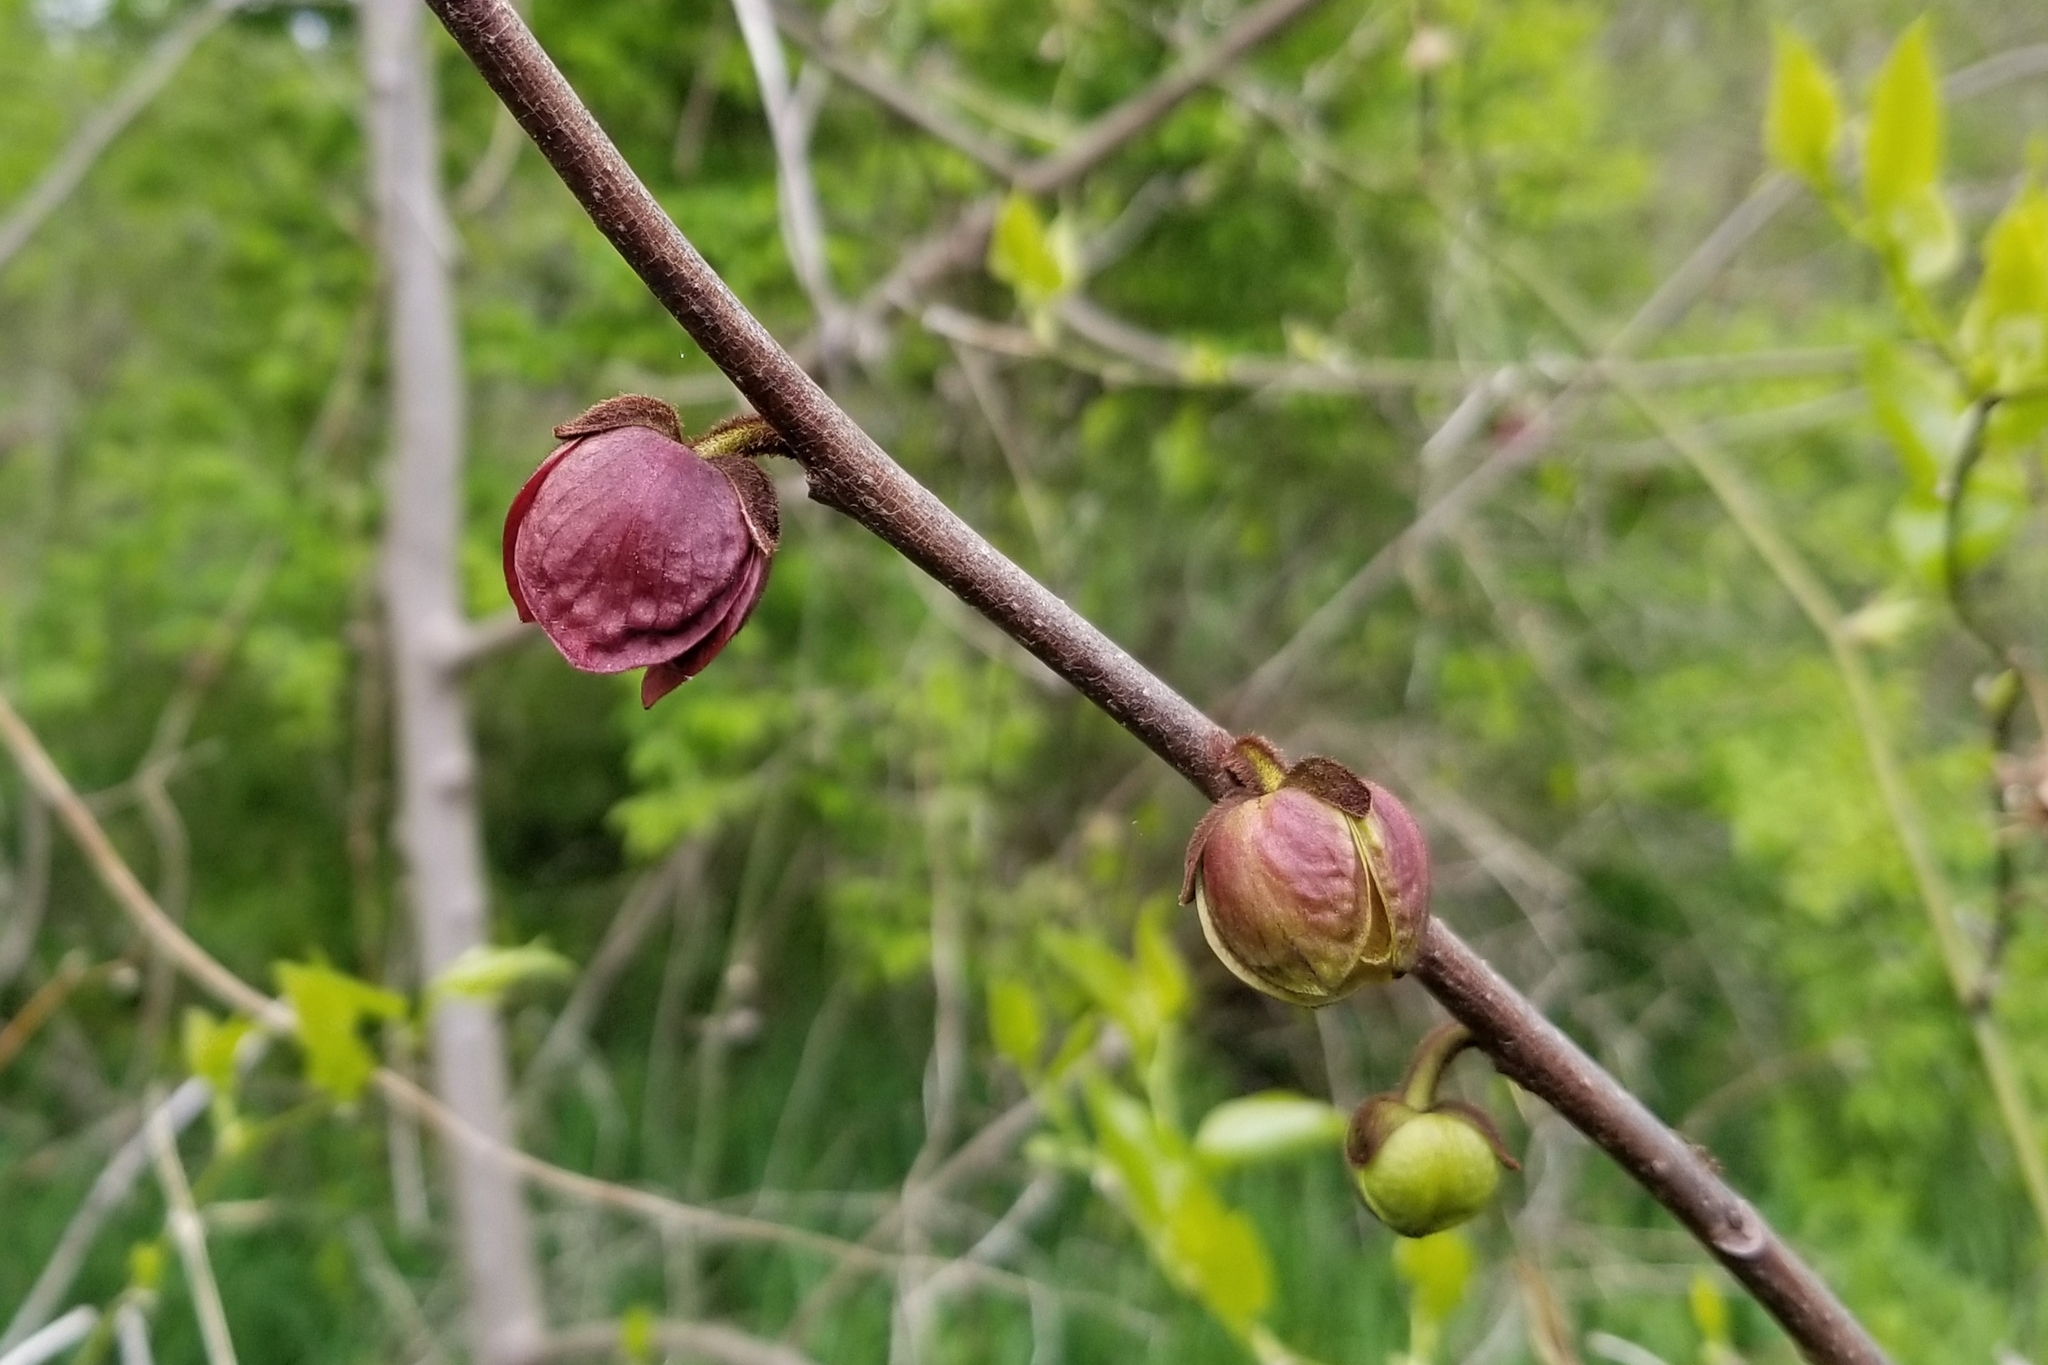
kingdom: Plantae
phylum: Tracheophyta
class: Magnoliopsida
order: Magnoliales
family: Annonaceae
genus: Asimina
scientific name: Asimina triloba
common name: Dog-banana
